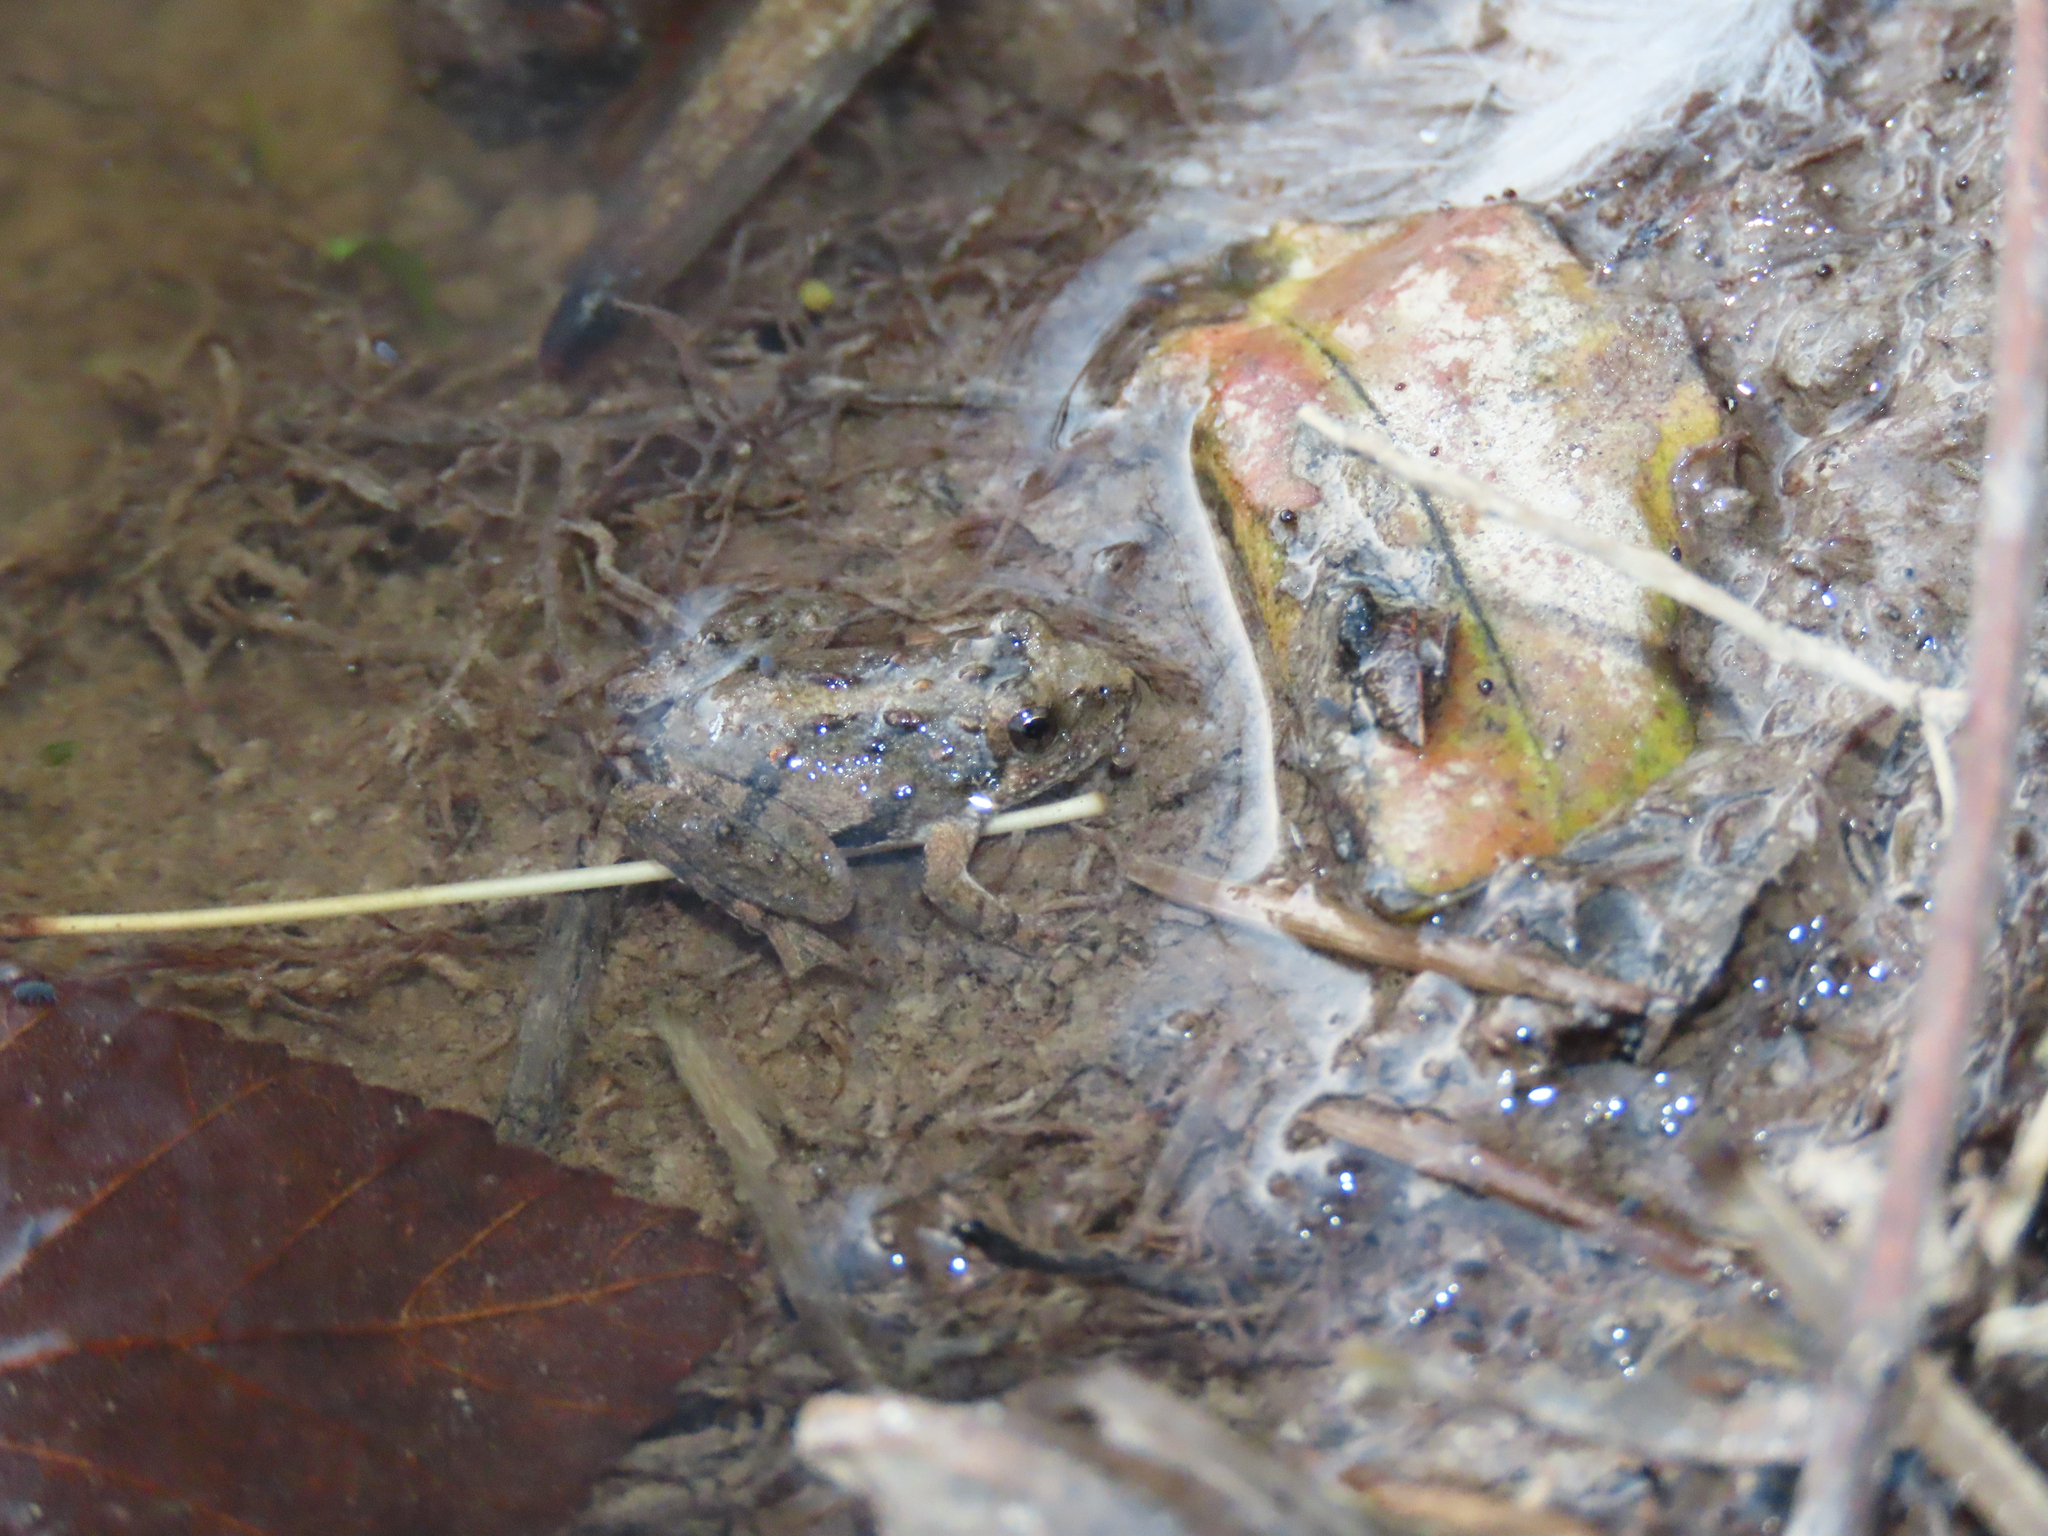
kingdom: Animalia
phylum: Chordata
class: Amphibia
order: Anura
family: Hylidae
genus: Acris
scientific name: Acris crepitans
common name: Northern cricket frog
